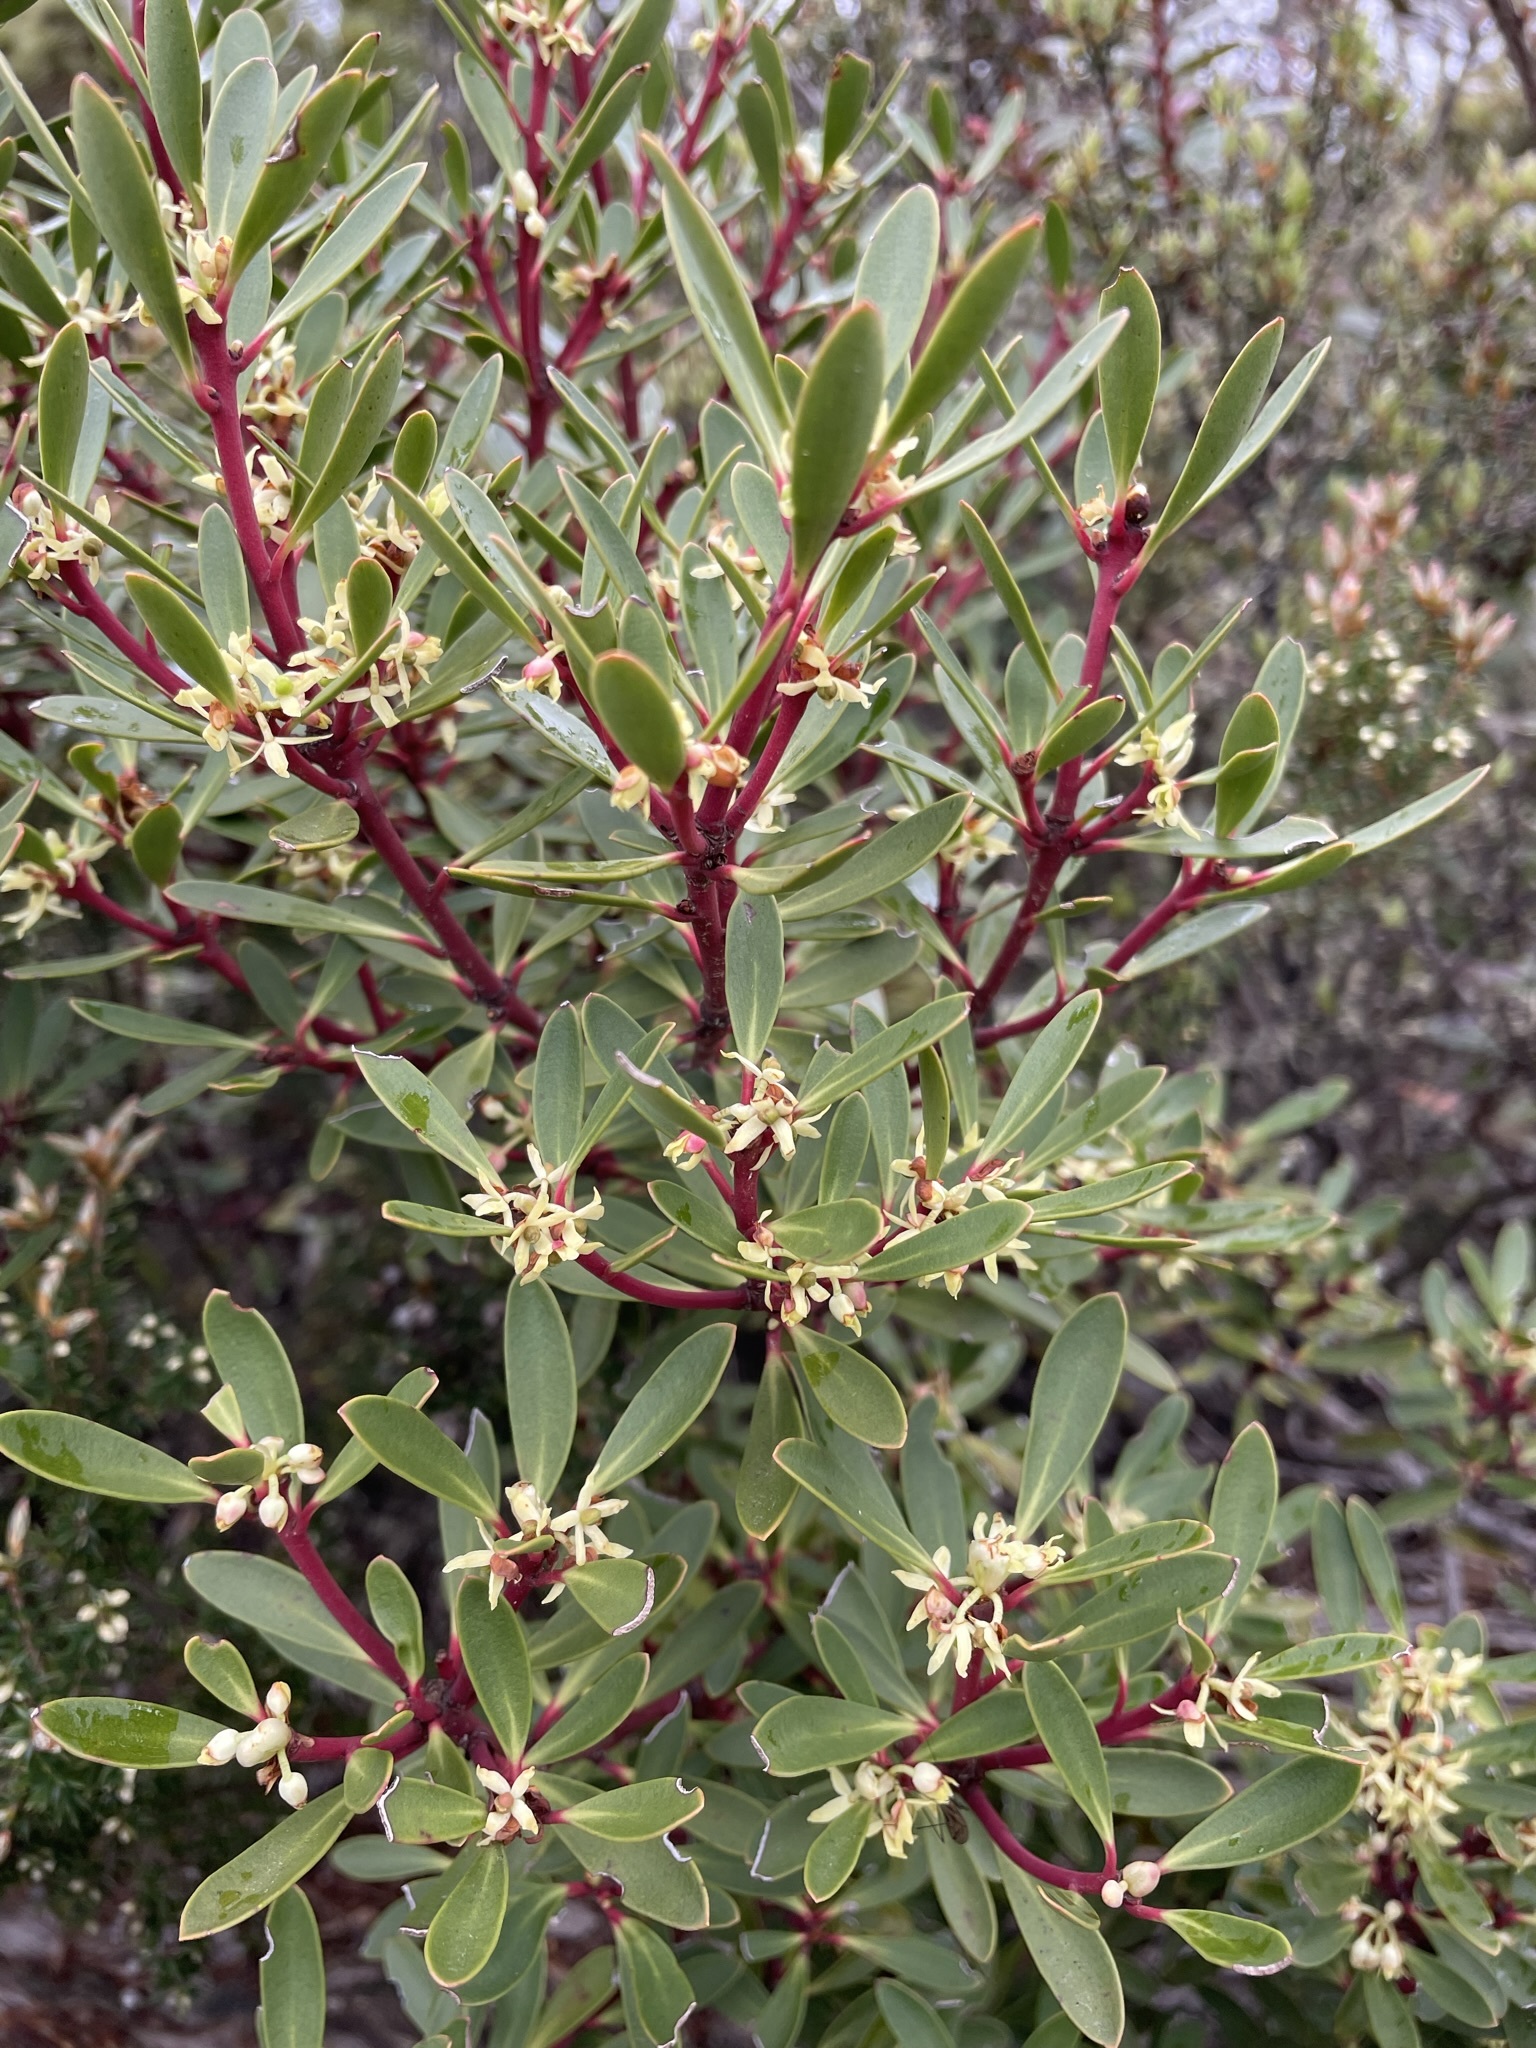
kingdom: Plantae
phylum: Tracheophyta
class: Magnoliopsida
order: Canellales
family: Winteraceae
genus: Drimys
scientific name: Drimys aromatica
